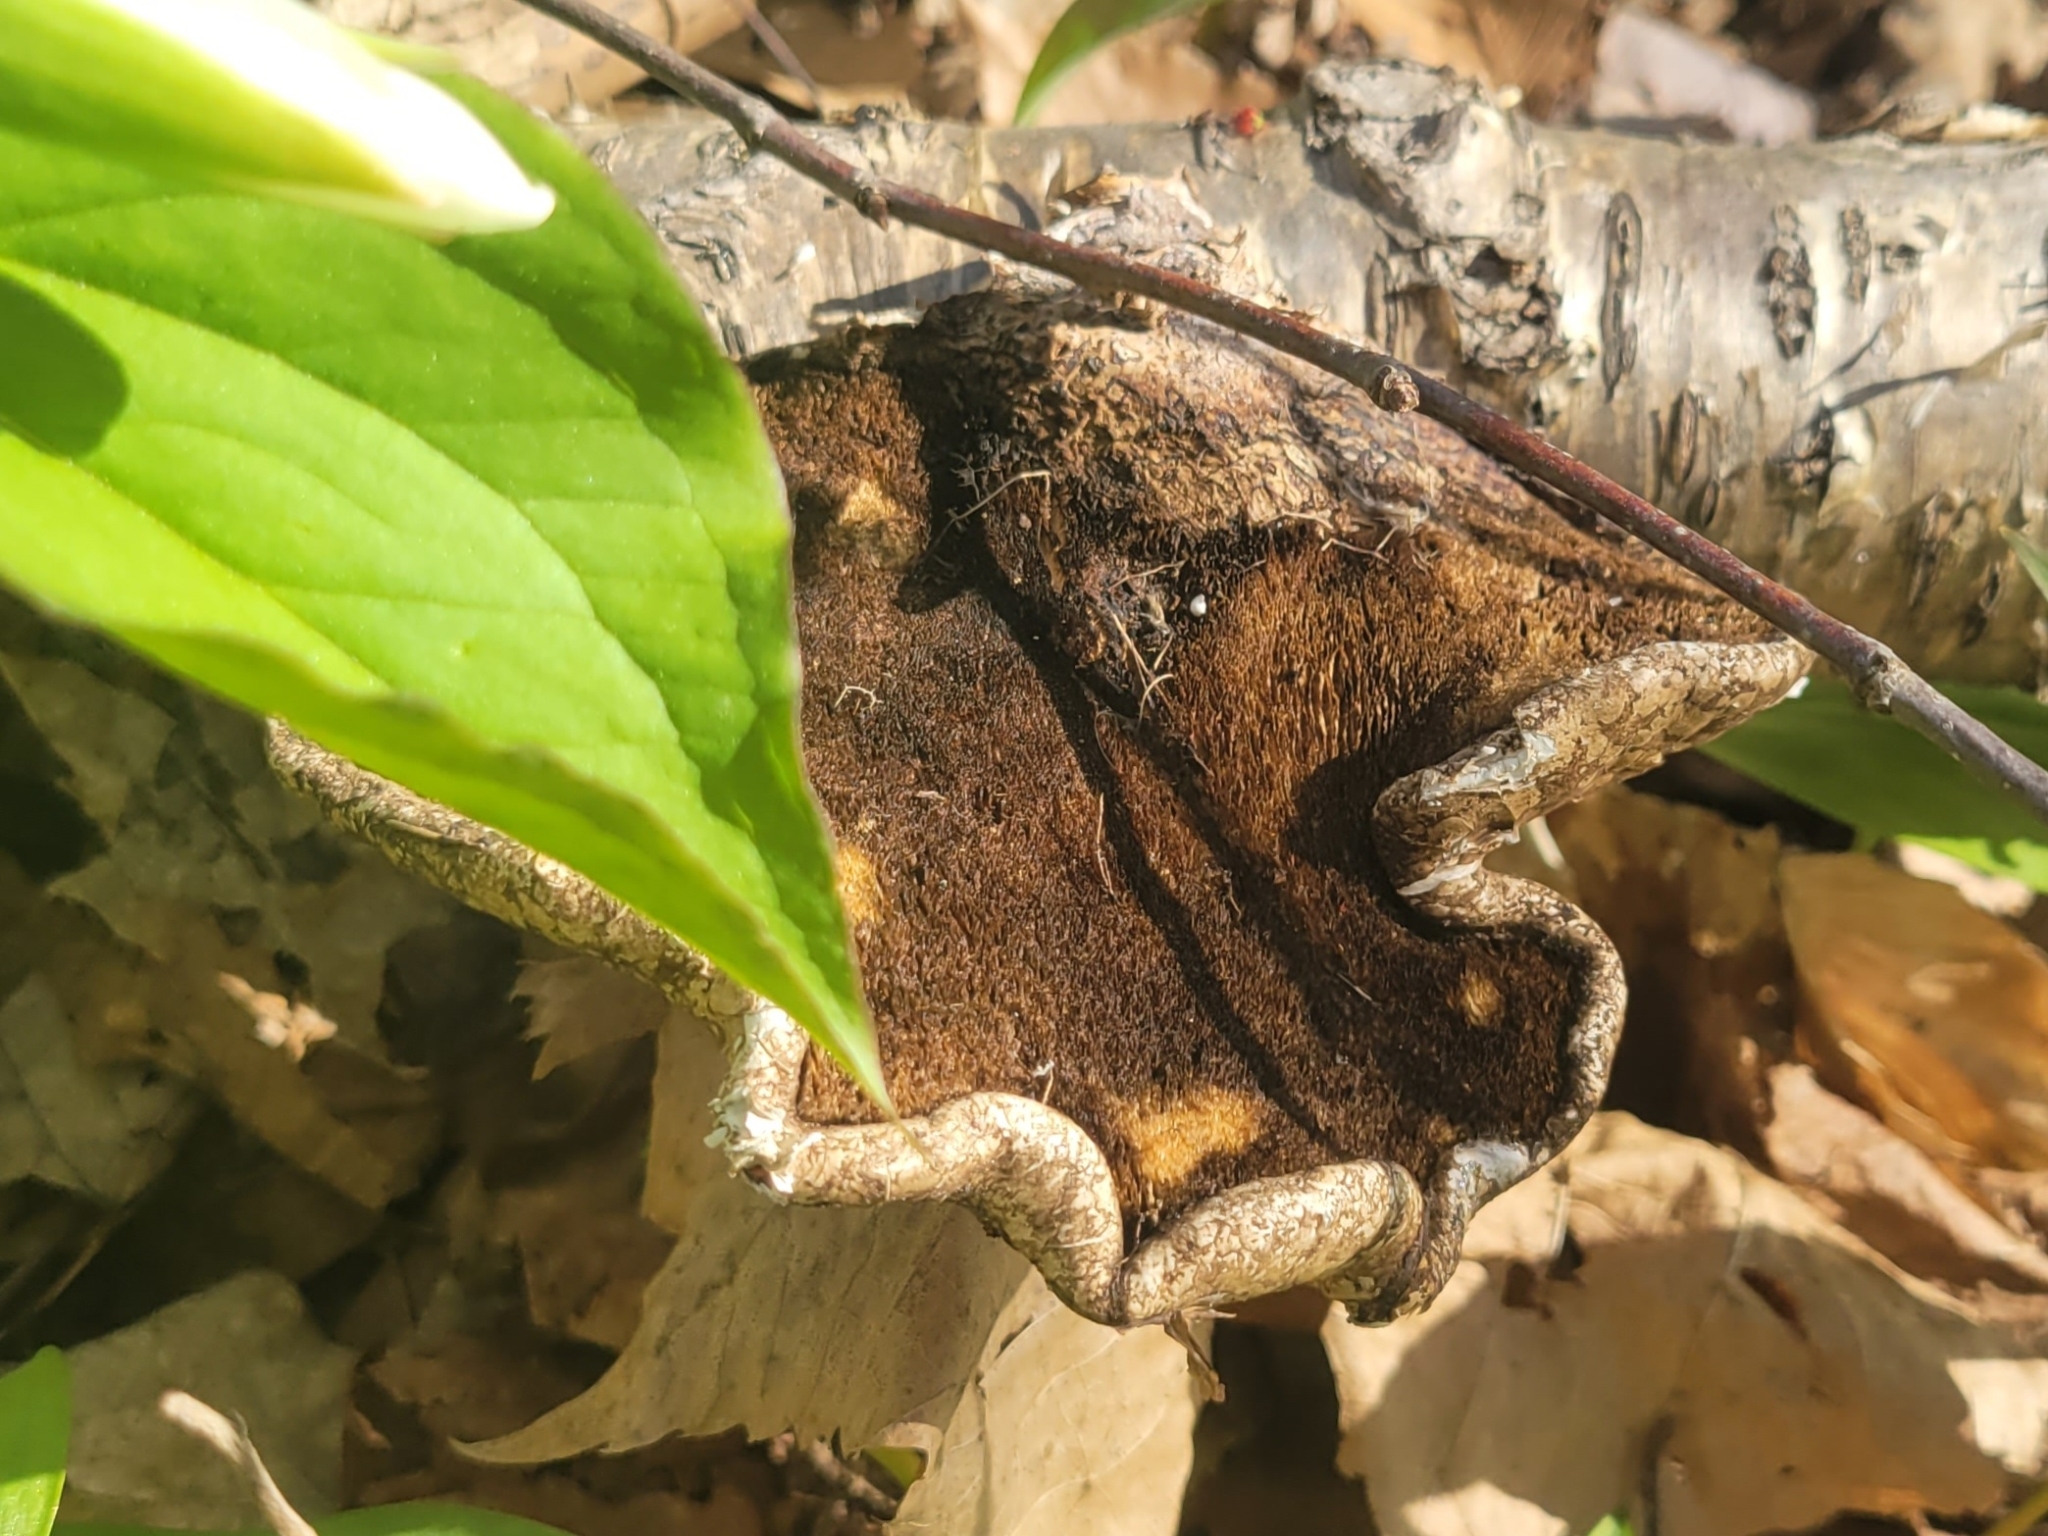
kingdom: Fungi
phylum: Basidiomycota
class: Agaricomycetes
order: Polyporales
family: Fomitopsidaceae
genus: Fomitopsis
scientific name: Fomitopsis betulina
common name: Birch polypore
